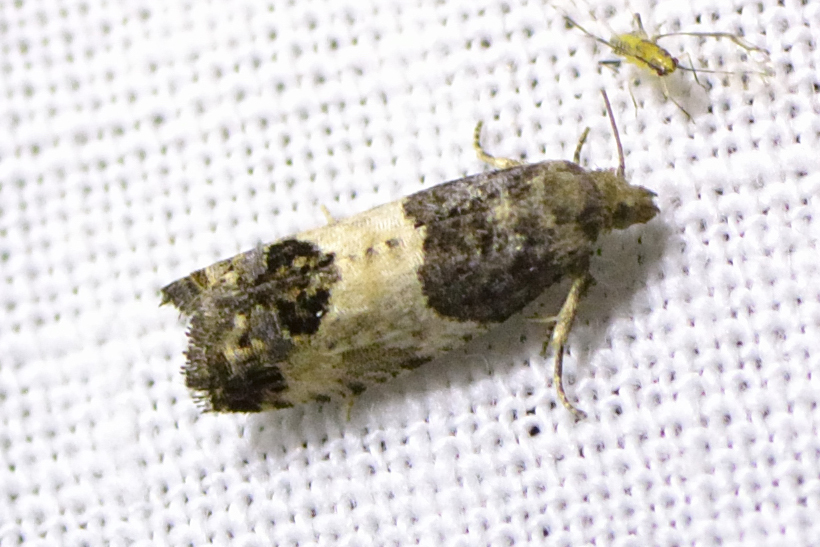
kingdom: Animalia
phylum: Arthropoda
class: Insecta
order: Lepidoptera
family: Tortricidae
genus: Spilonota
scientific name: Spilonota ocellana
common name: Bud moth
